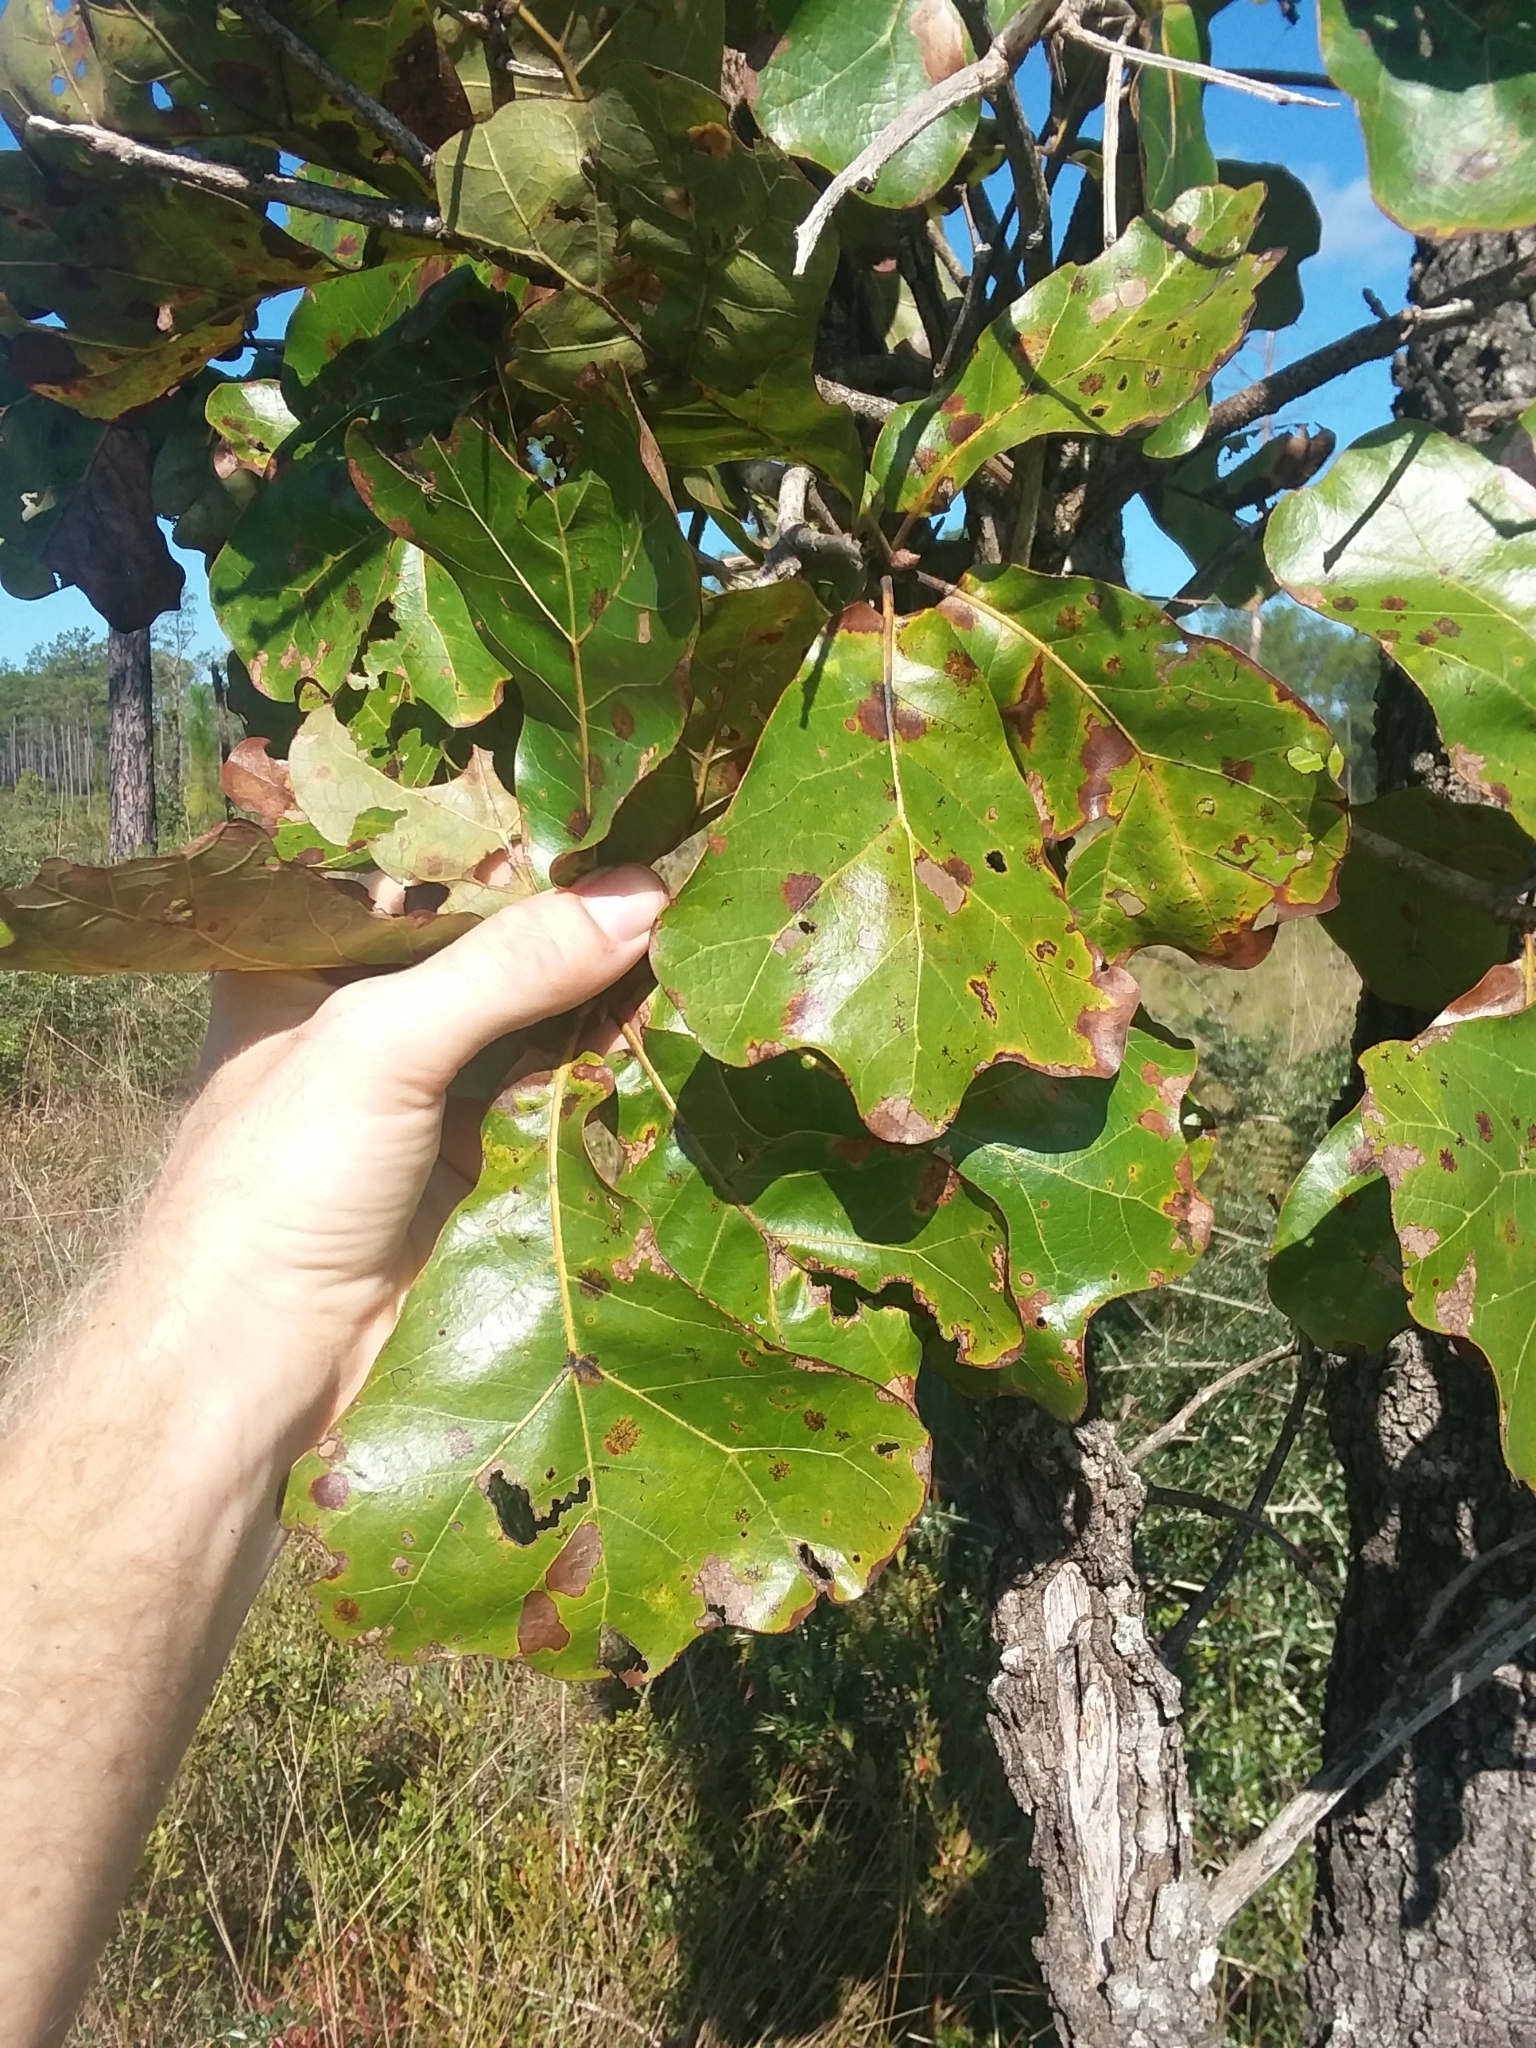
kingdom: Plantae
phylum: Tracheophyta
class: Magnoliopsida
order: Fagales
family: Fagaceae
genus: Quercus
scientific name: Quercus marilandica
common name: Blackjack oak
